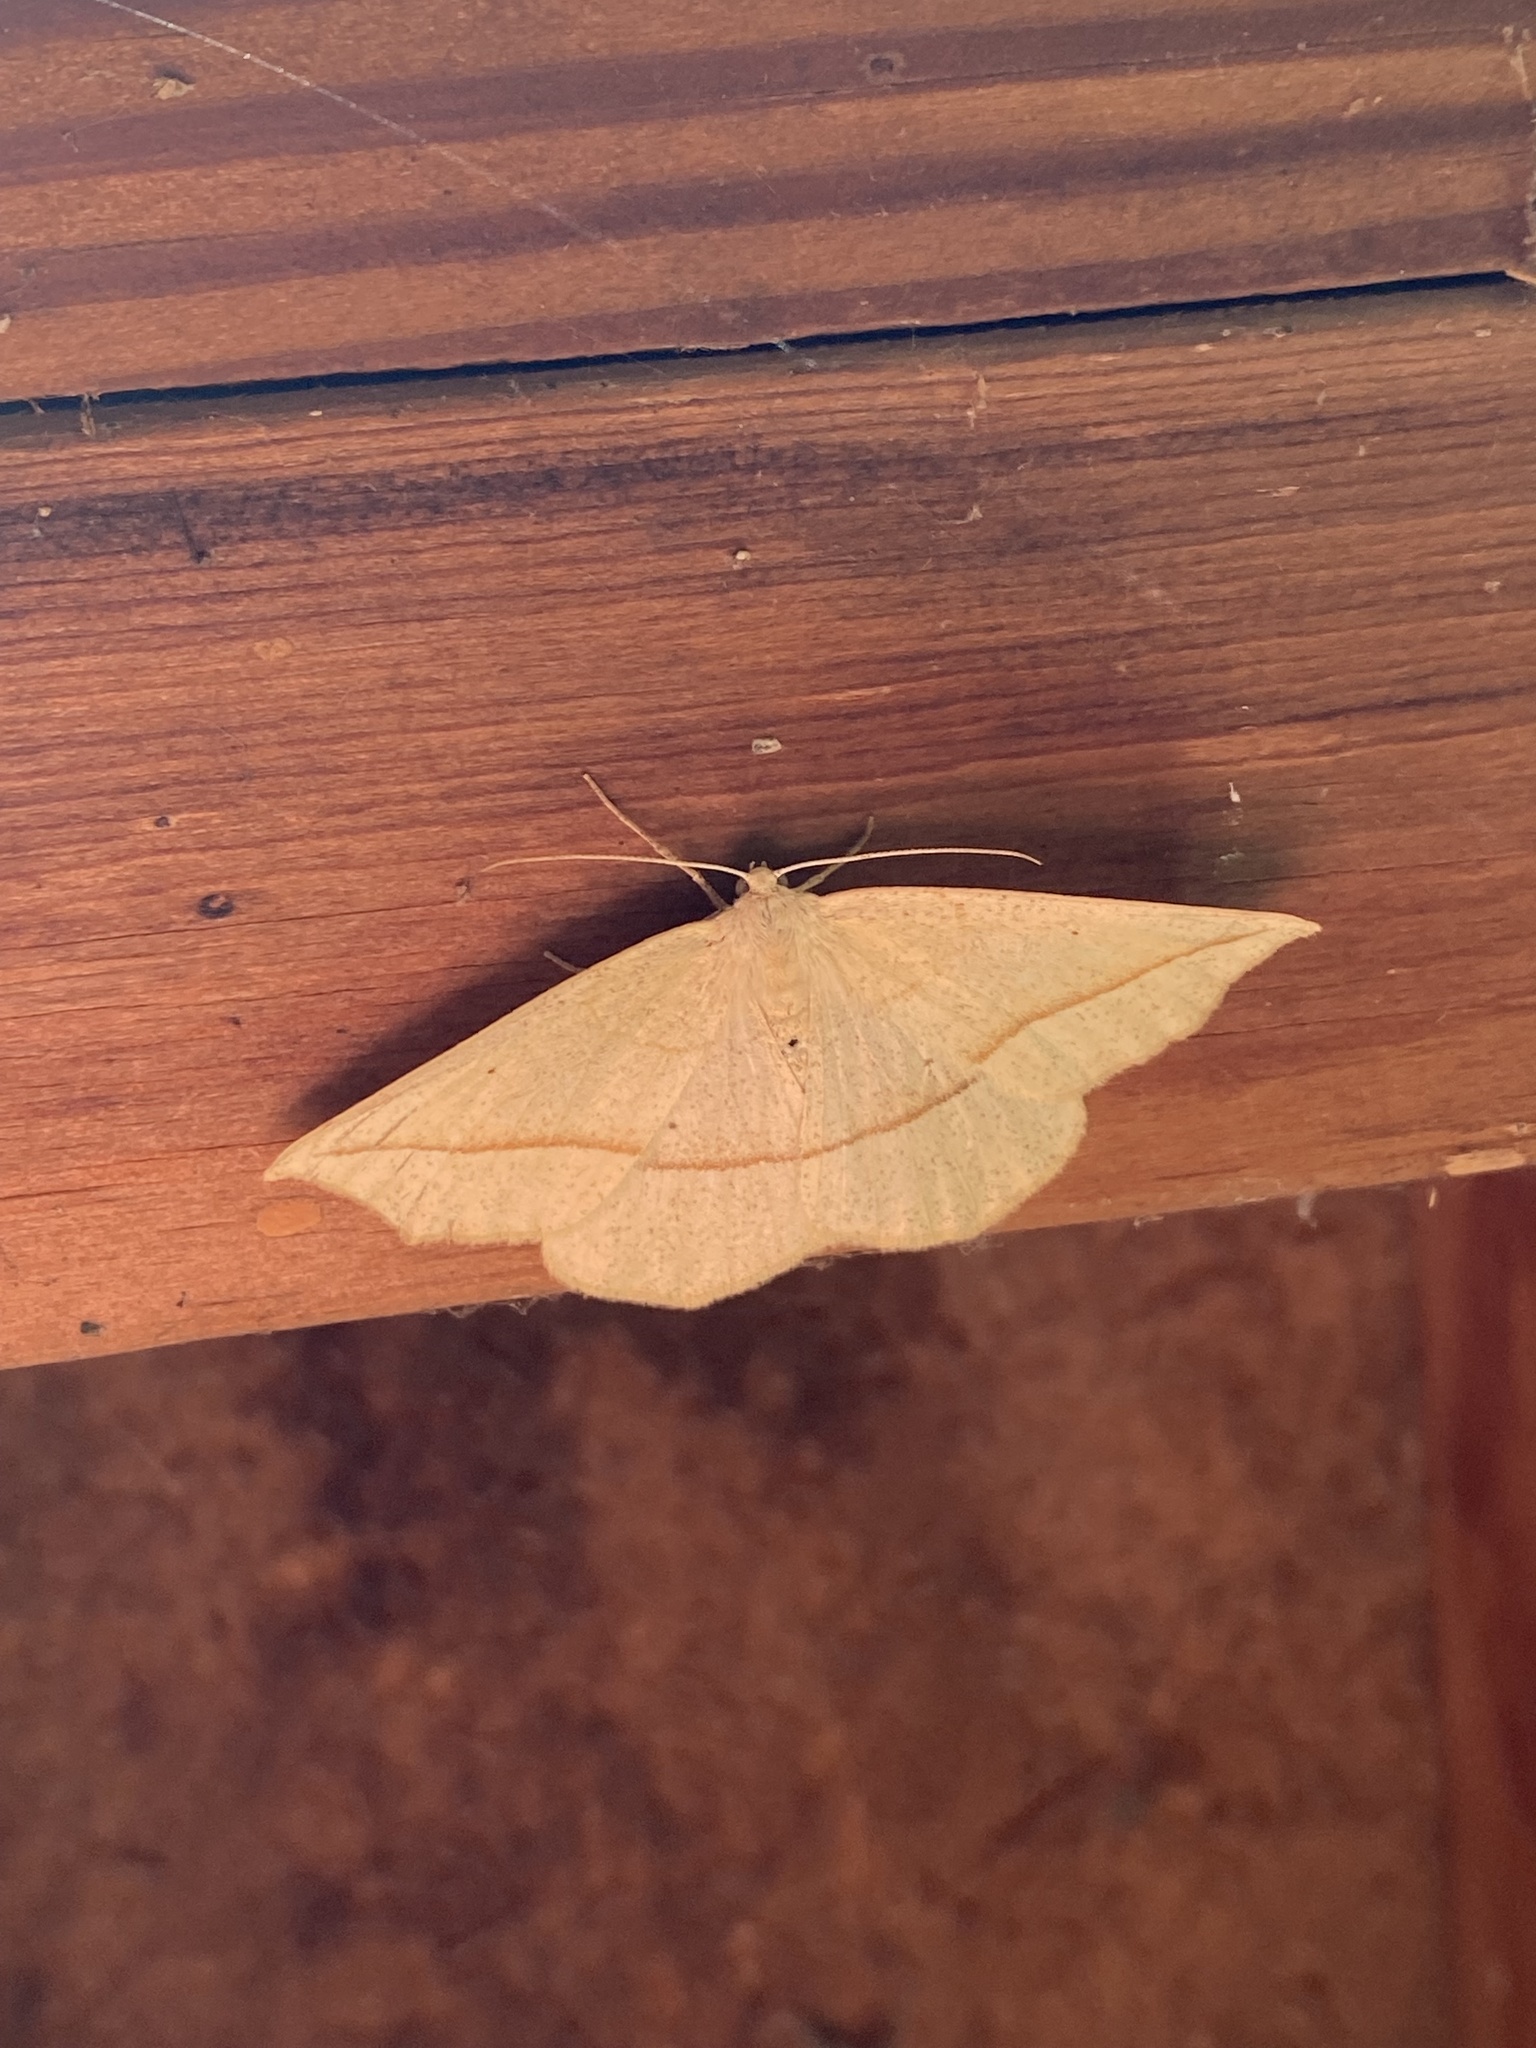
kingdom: Animalia
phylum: Arthropoda
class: Insecta
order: Lepidoptera
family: Geometridae
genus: Eusarca
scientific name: Eusarca confusaria
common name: Confused eusarca
